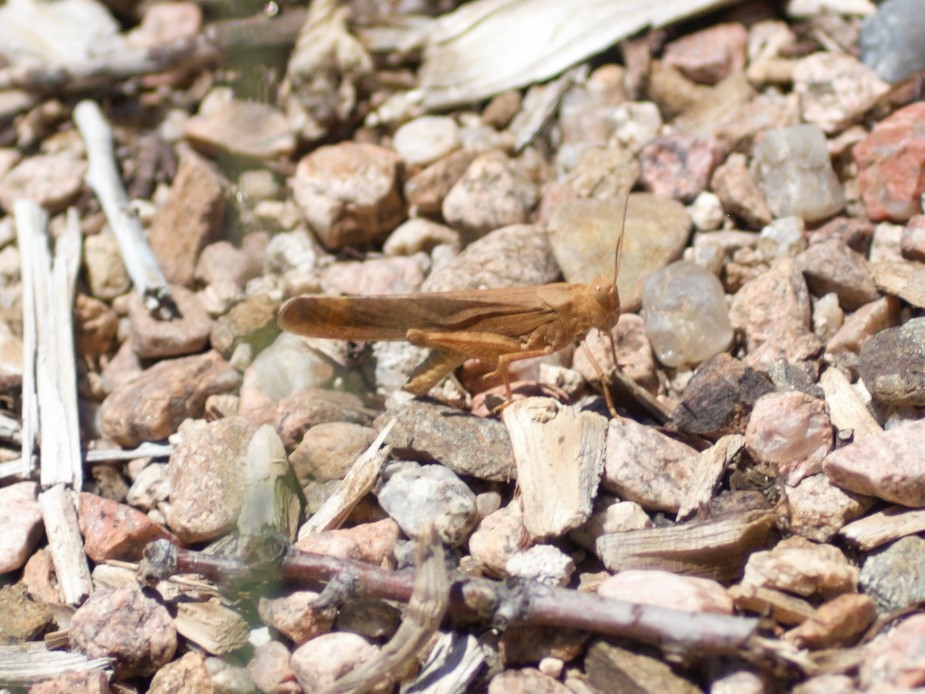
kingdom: Animalia
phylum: Arthropoda
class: Insecta
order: Orthoptera
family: Acrididae
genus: Dissosteira
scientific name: Dissosteira carolina
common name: Carolina grasshopper
